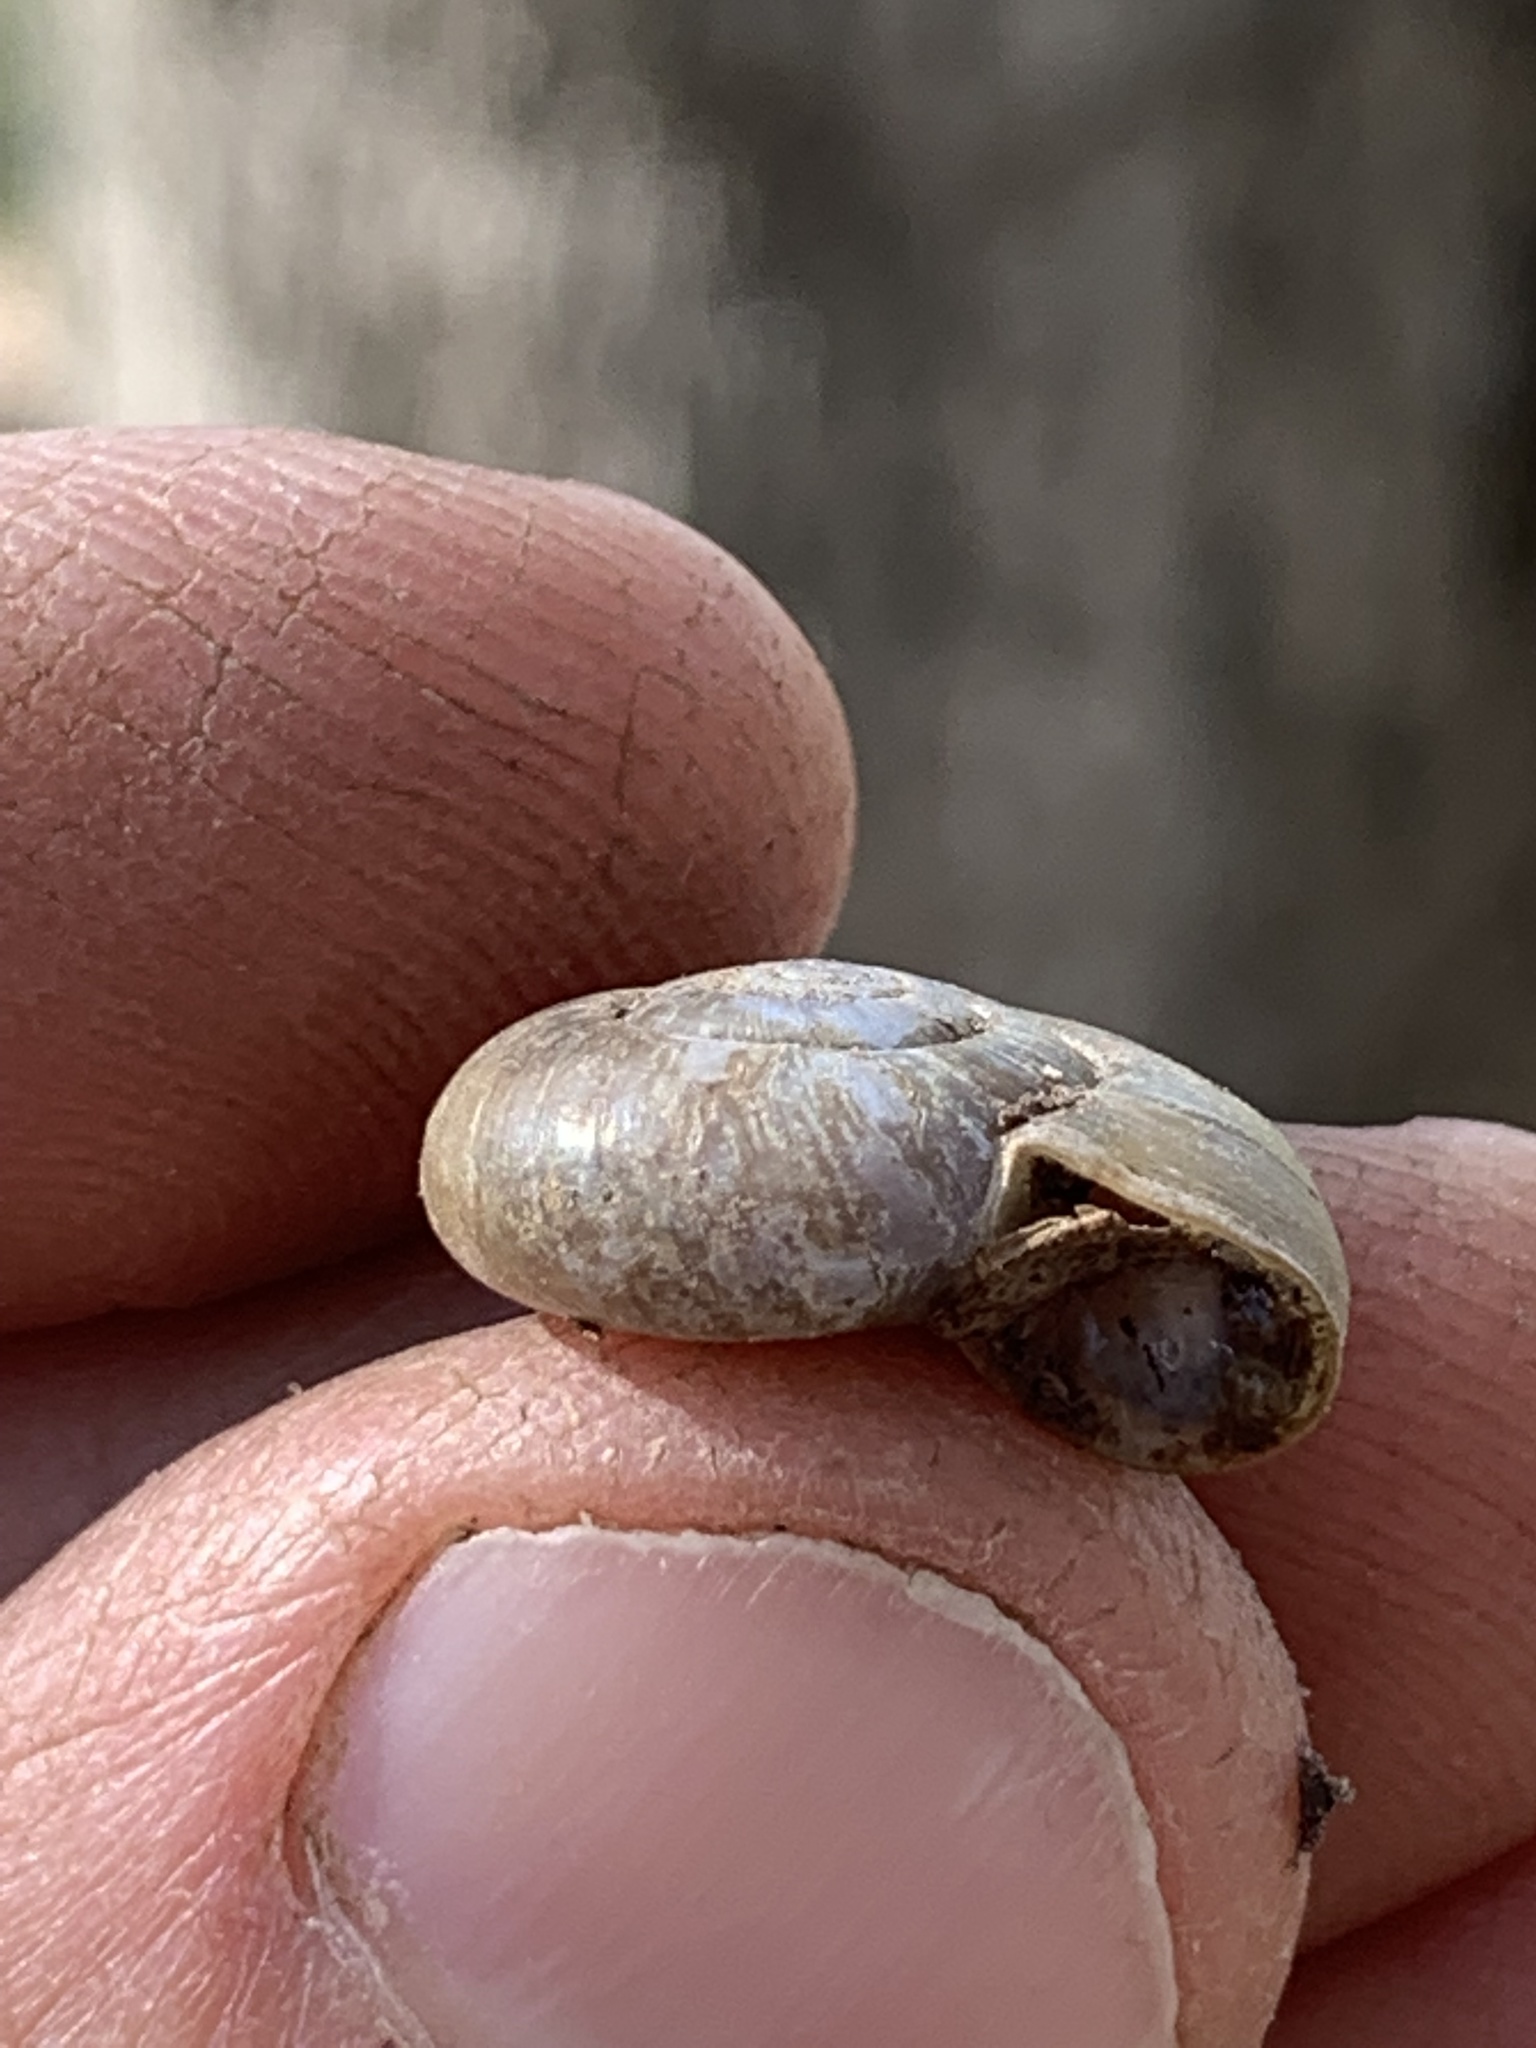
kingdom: Animalia
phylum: Mollusca
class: Gastropoda
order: Stylommatophora
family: Haplotrematidae
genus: Haplotrema
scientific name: Haplotrema concavum
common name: Gray-foot lancetooth
